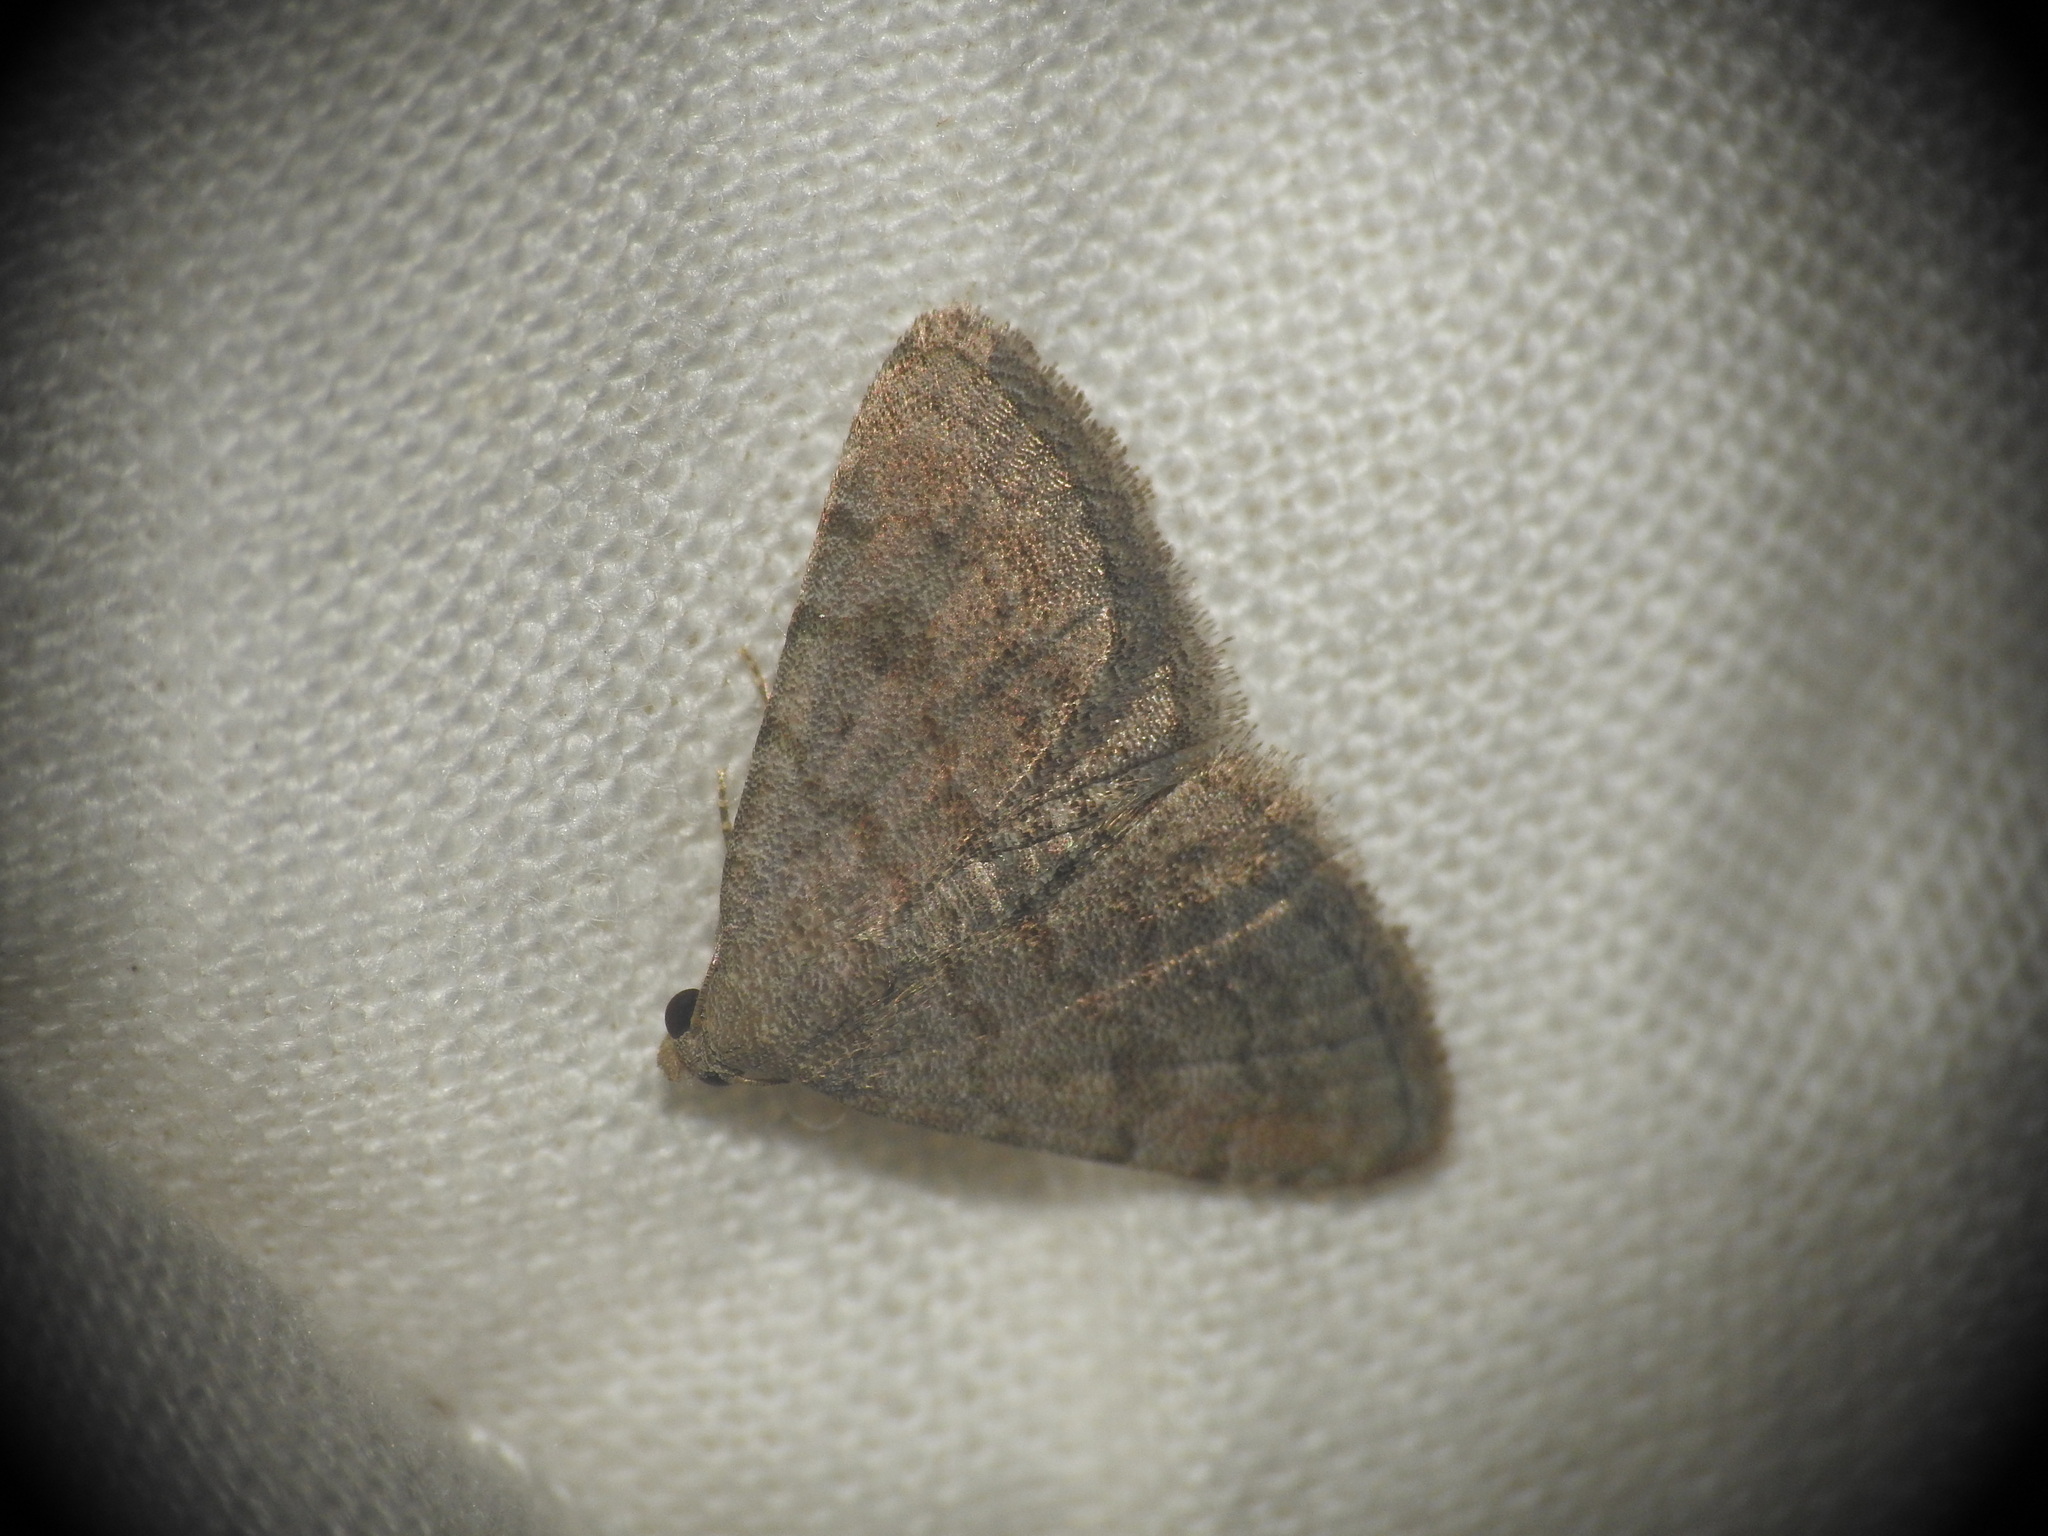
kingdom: Animalia
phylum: Arthropoda
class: Insecta
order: Lepidoptera
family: Noctuidae
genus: Metachrostis
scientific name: Metachrostis velox
